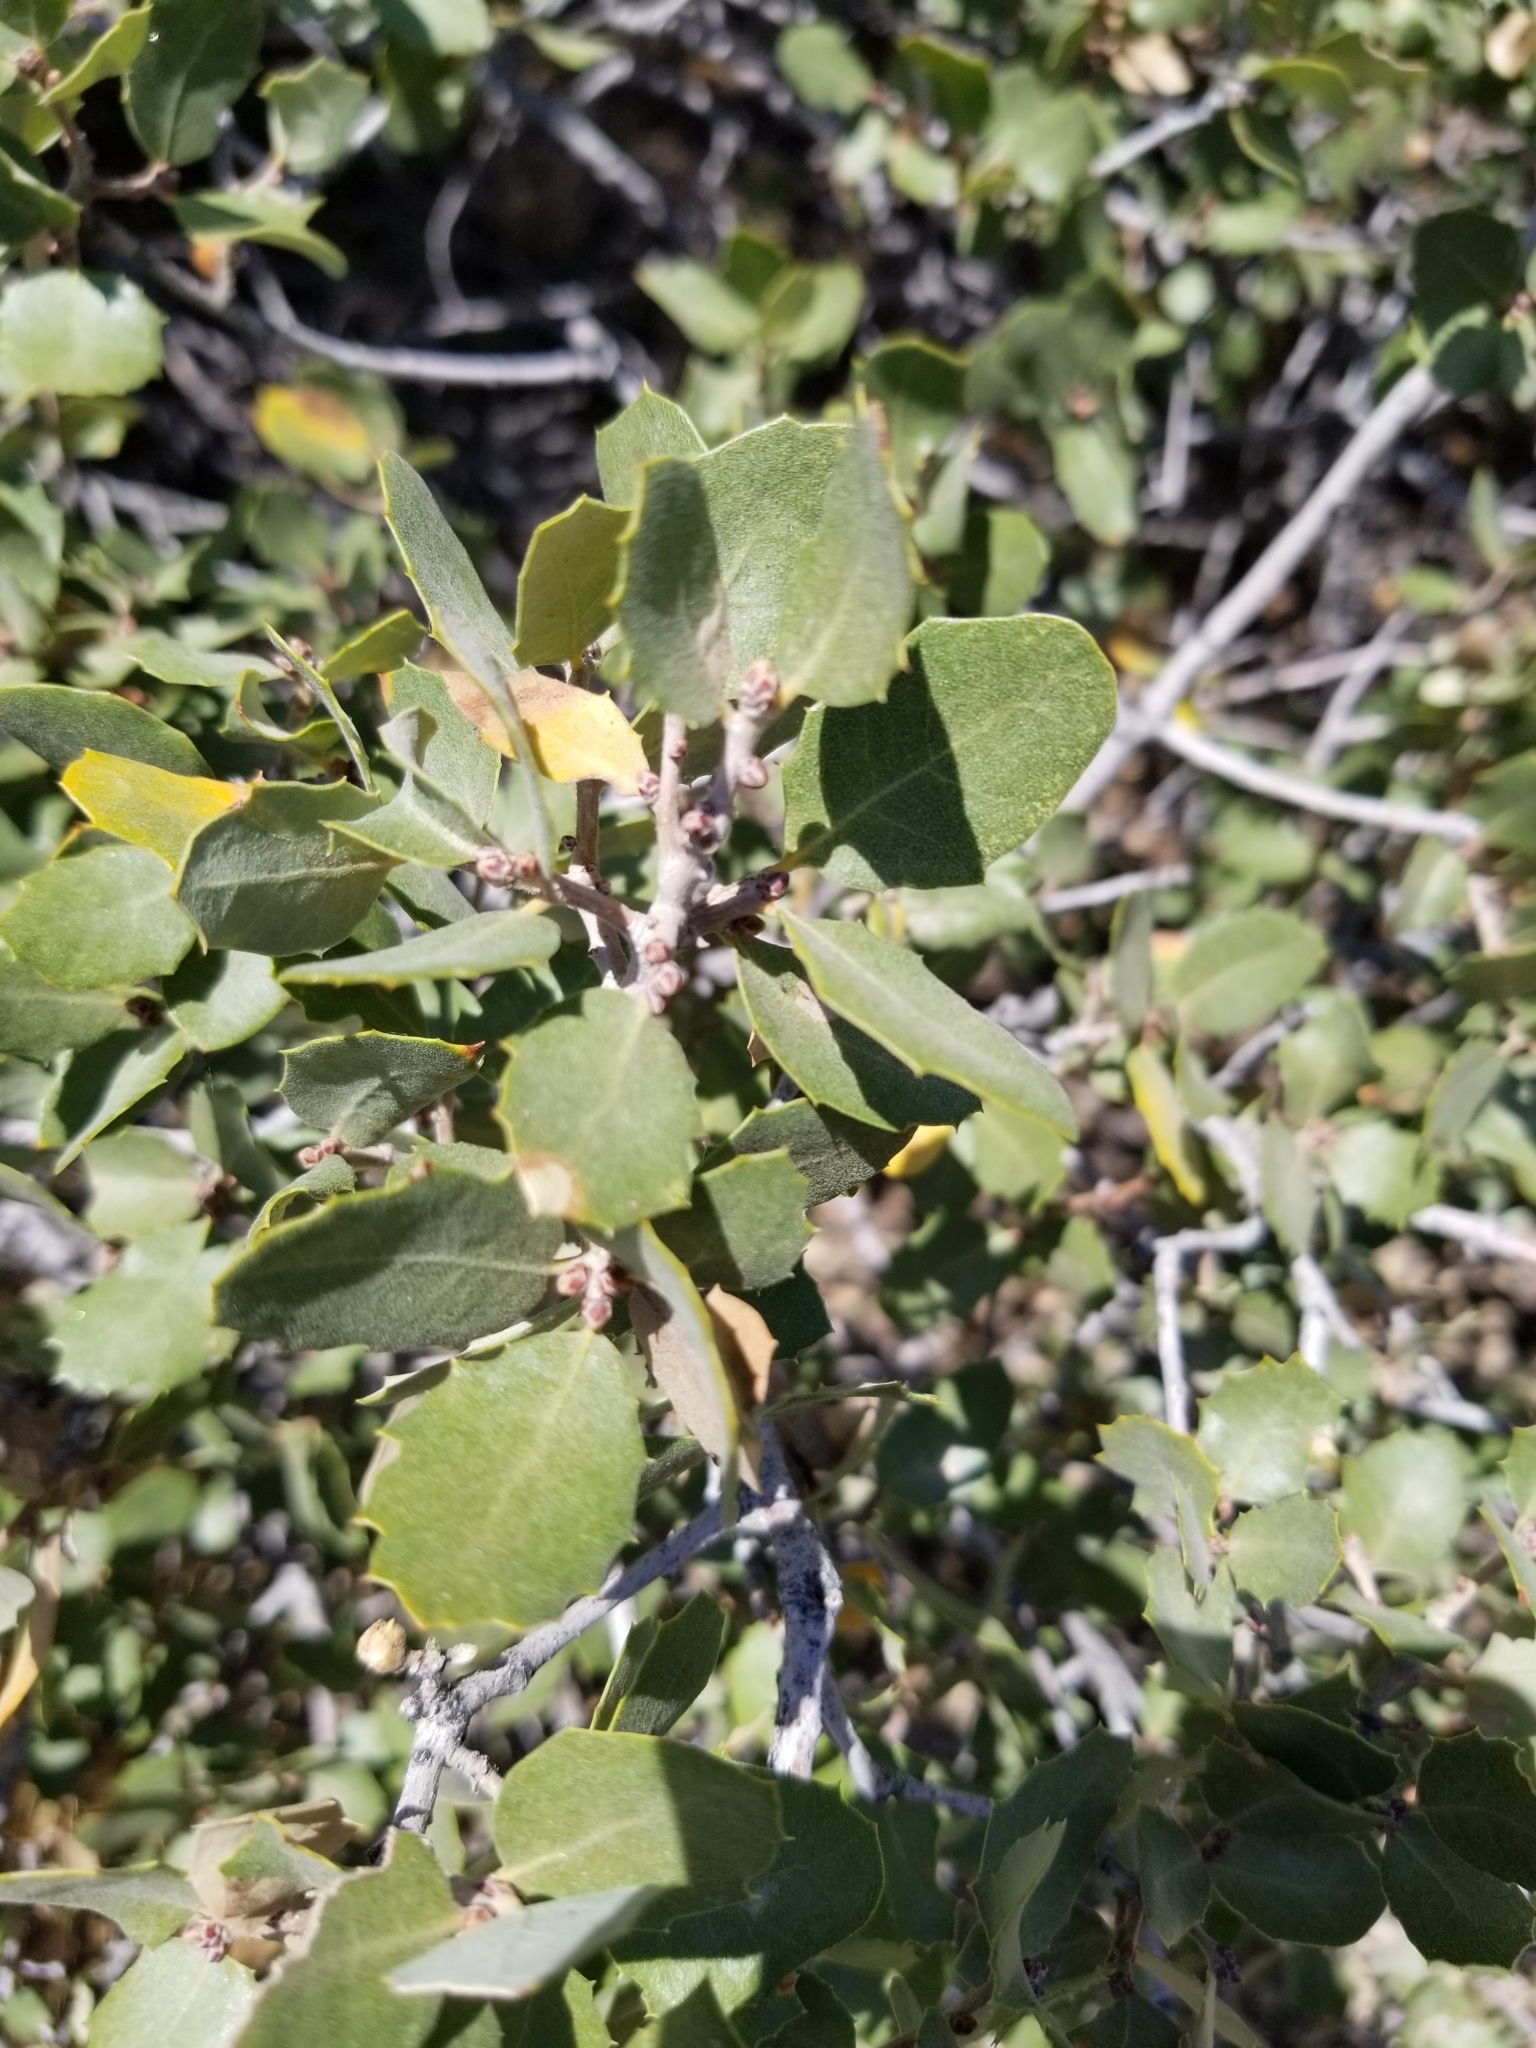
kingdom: Plantae
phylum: Tracheophyta
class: Magnoliopsida
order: Fagales
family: Fagaceae
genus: Quercus
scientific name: Quercus cornelius-mulleri
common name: Muller oak
